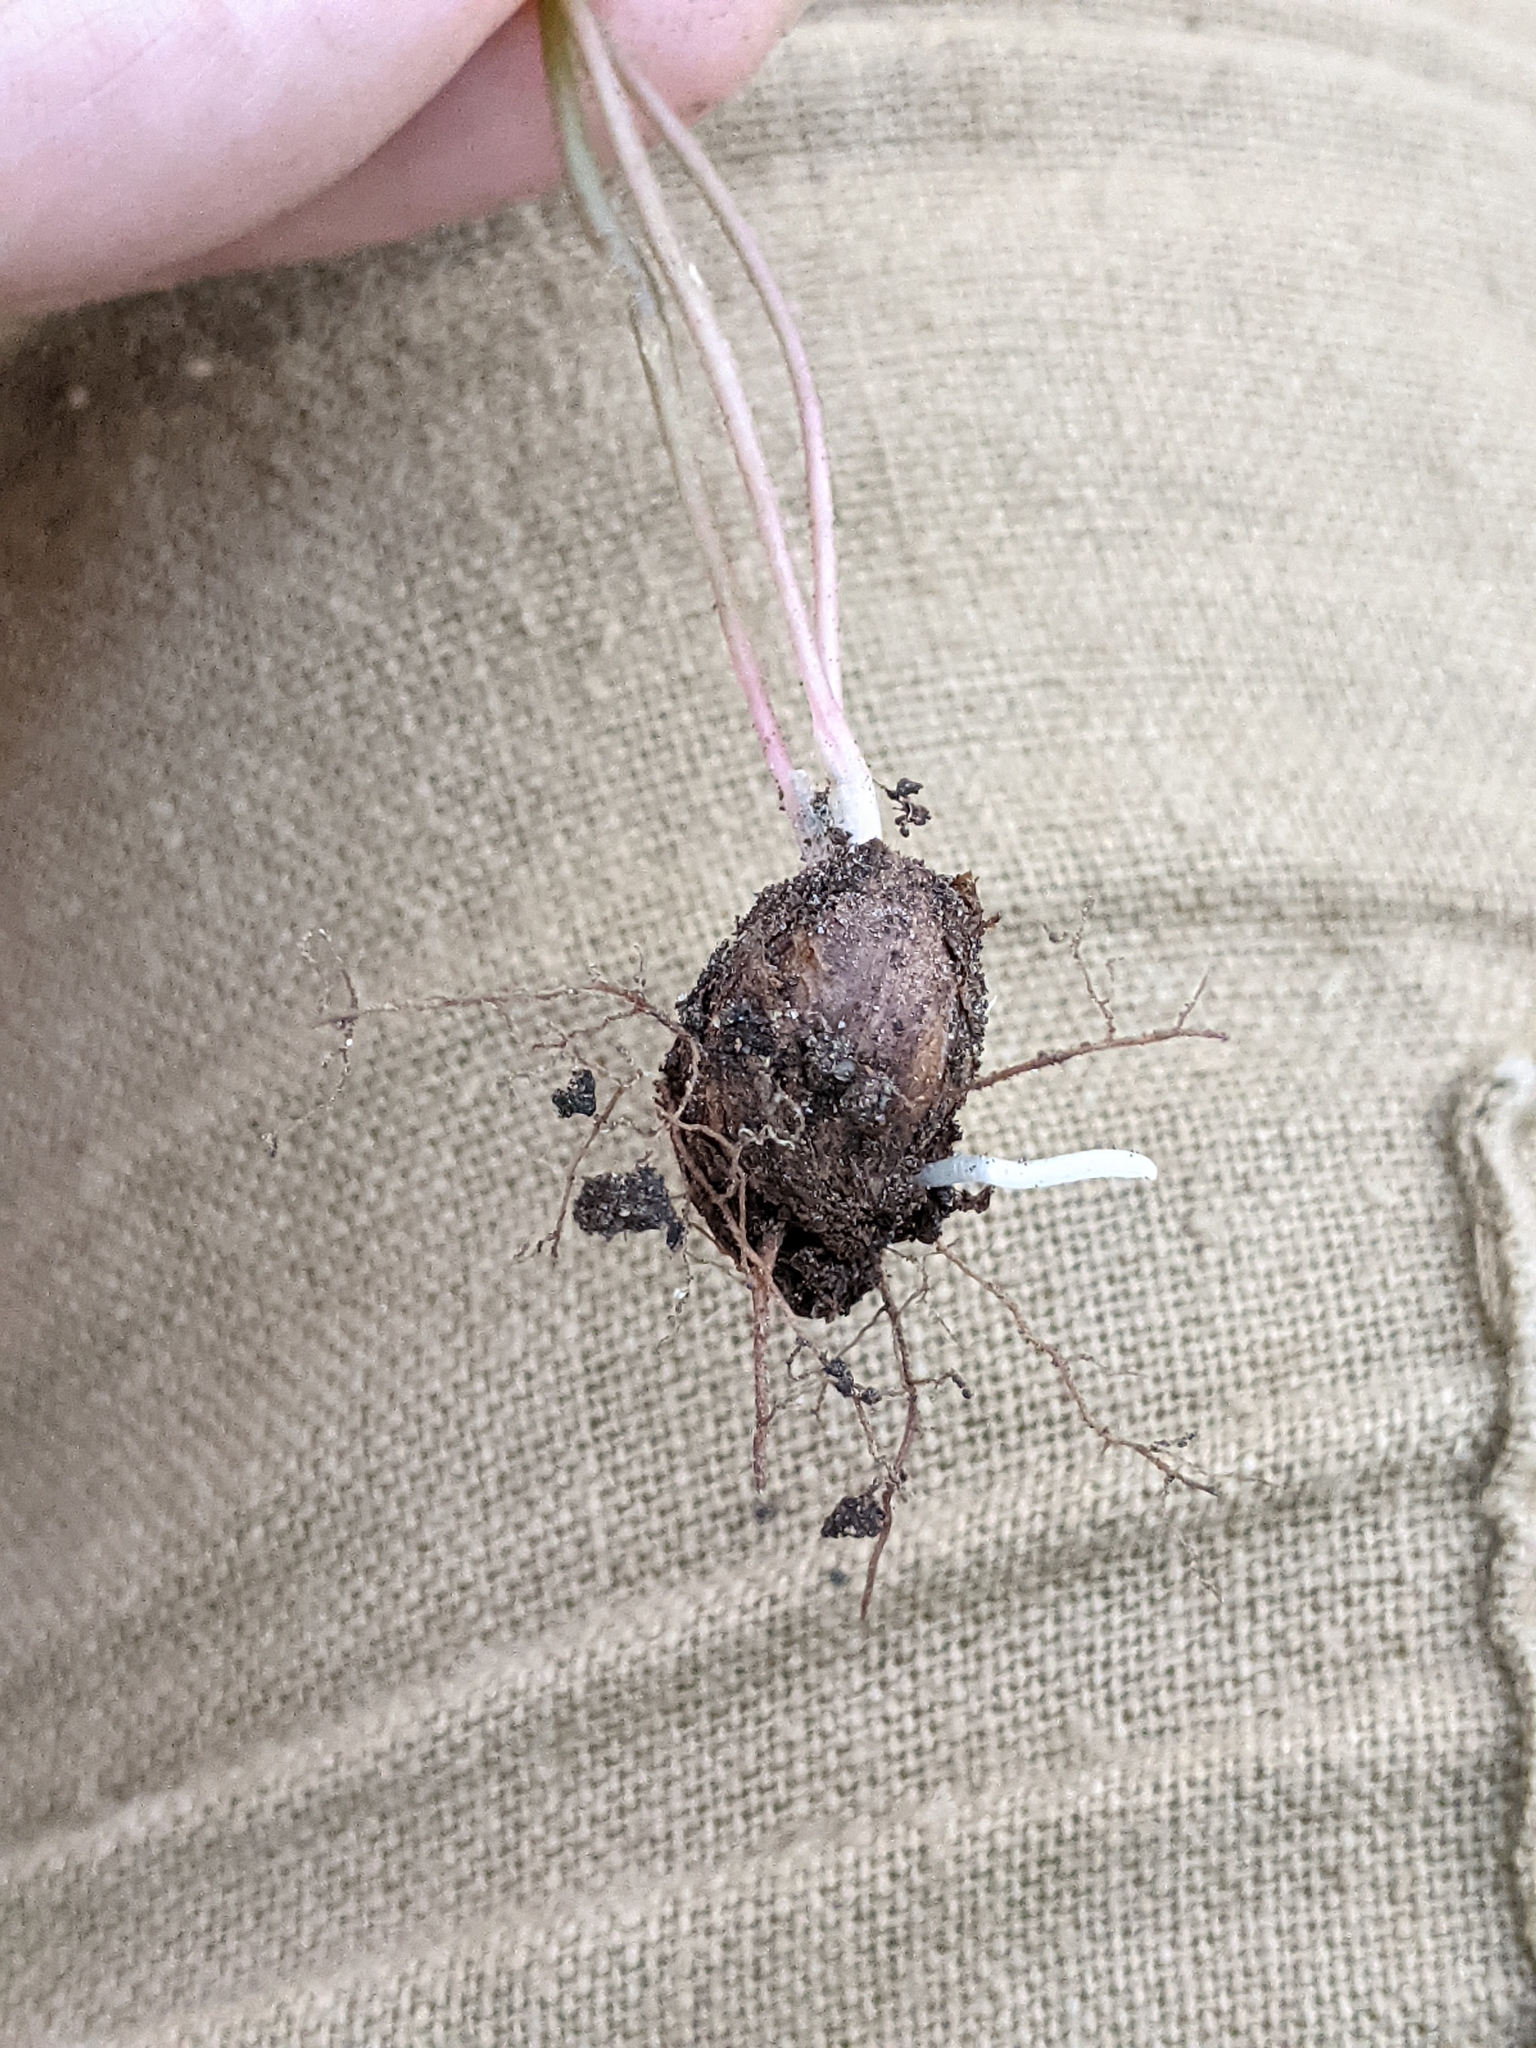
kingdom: Plantae
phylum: Tracheophyta
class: Magnoliopsida
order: Oxalidales
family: Oxalidaceae
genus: Oxalis
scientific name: Oxalis drummondii
